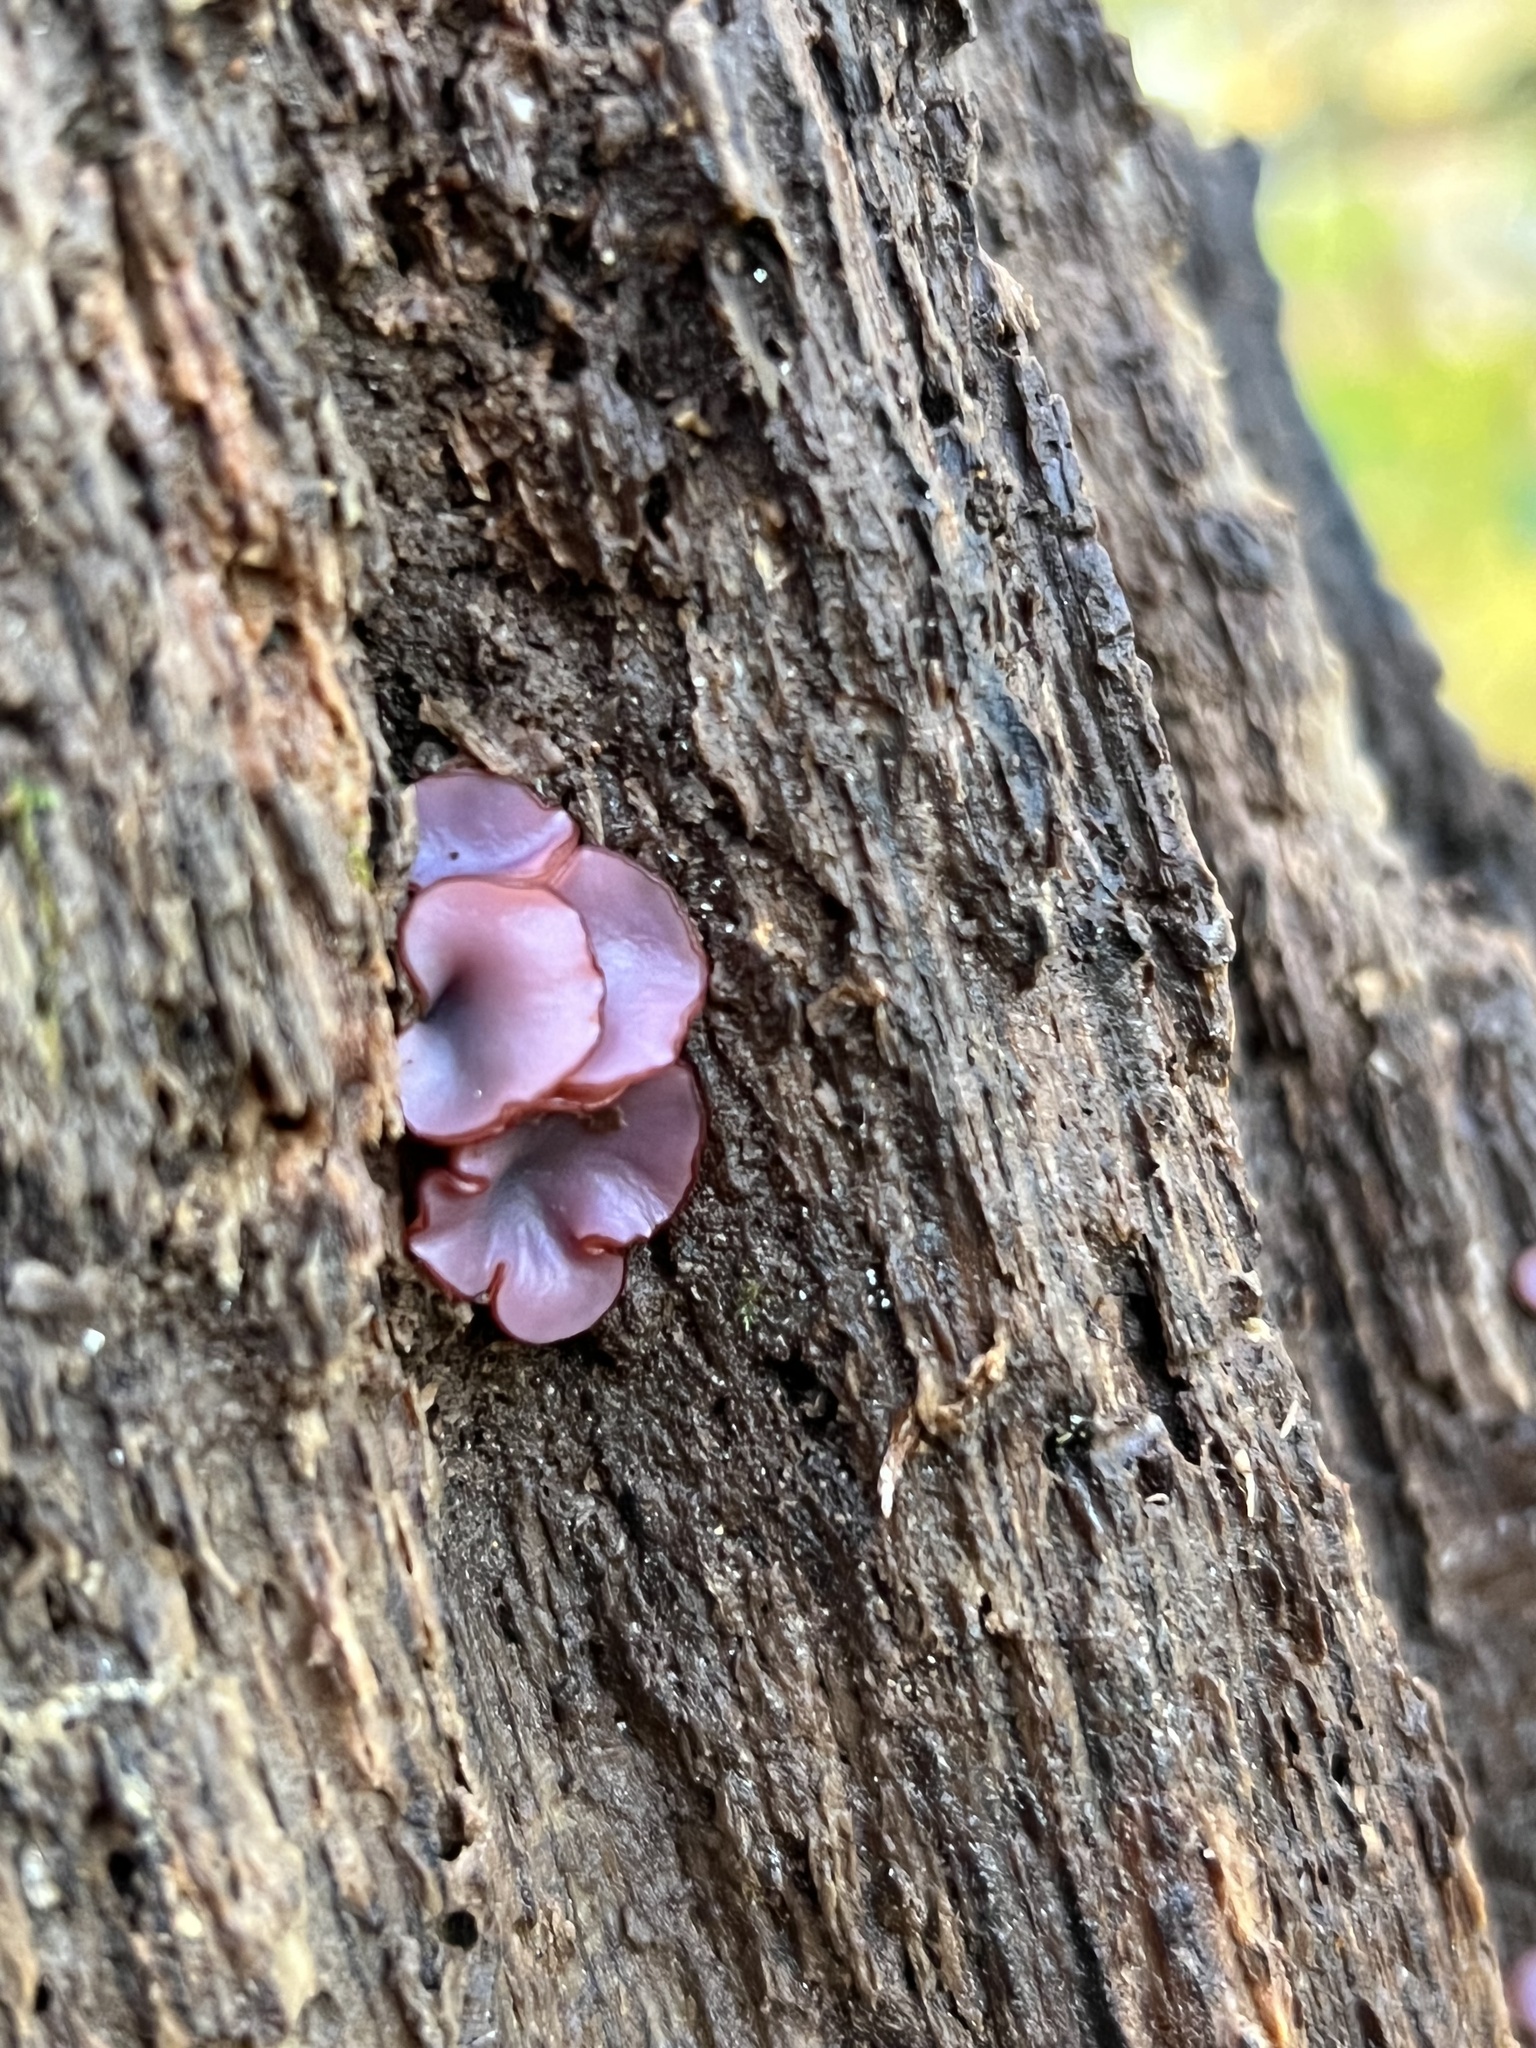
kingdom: Fungi
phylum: Ascomycota
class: Leotiomycetes
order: Helotiales
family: Gelatinodiscaceae
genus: Ascocoryne
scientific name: Ascocoryne sarcoides
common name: Purple jellydisc
